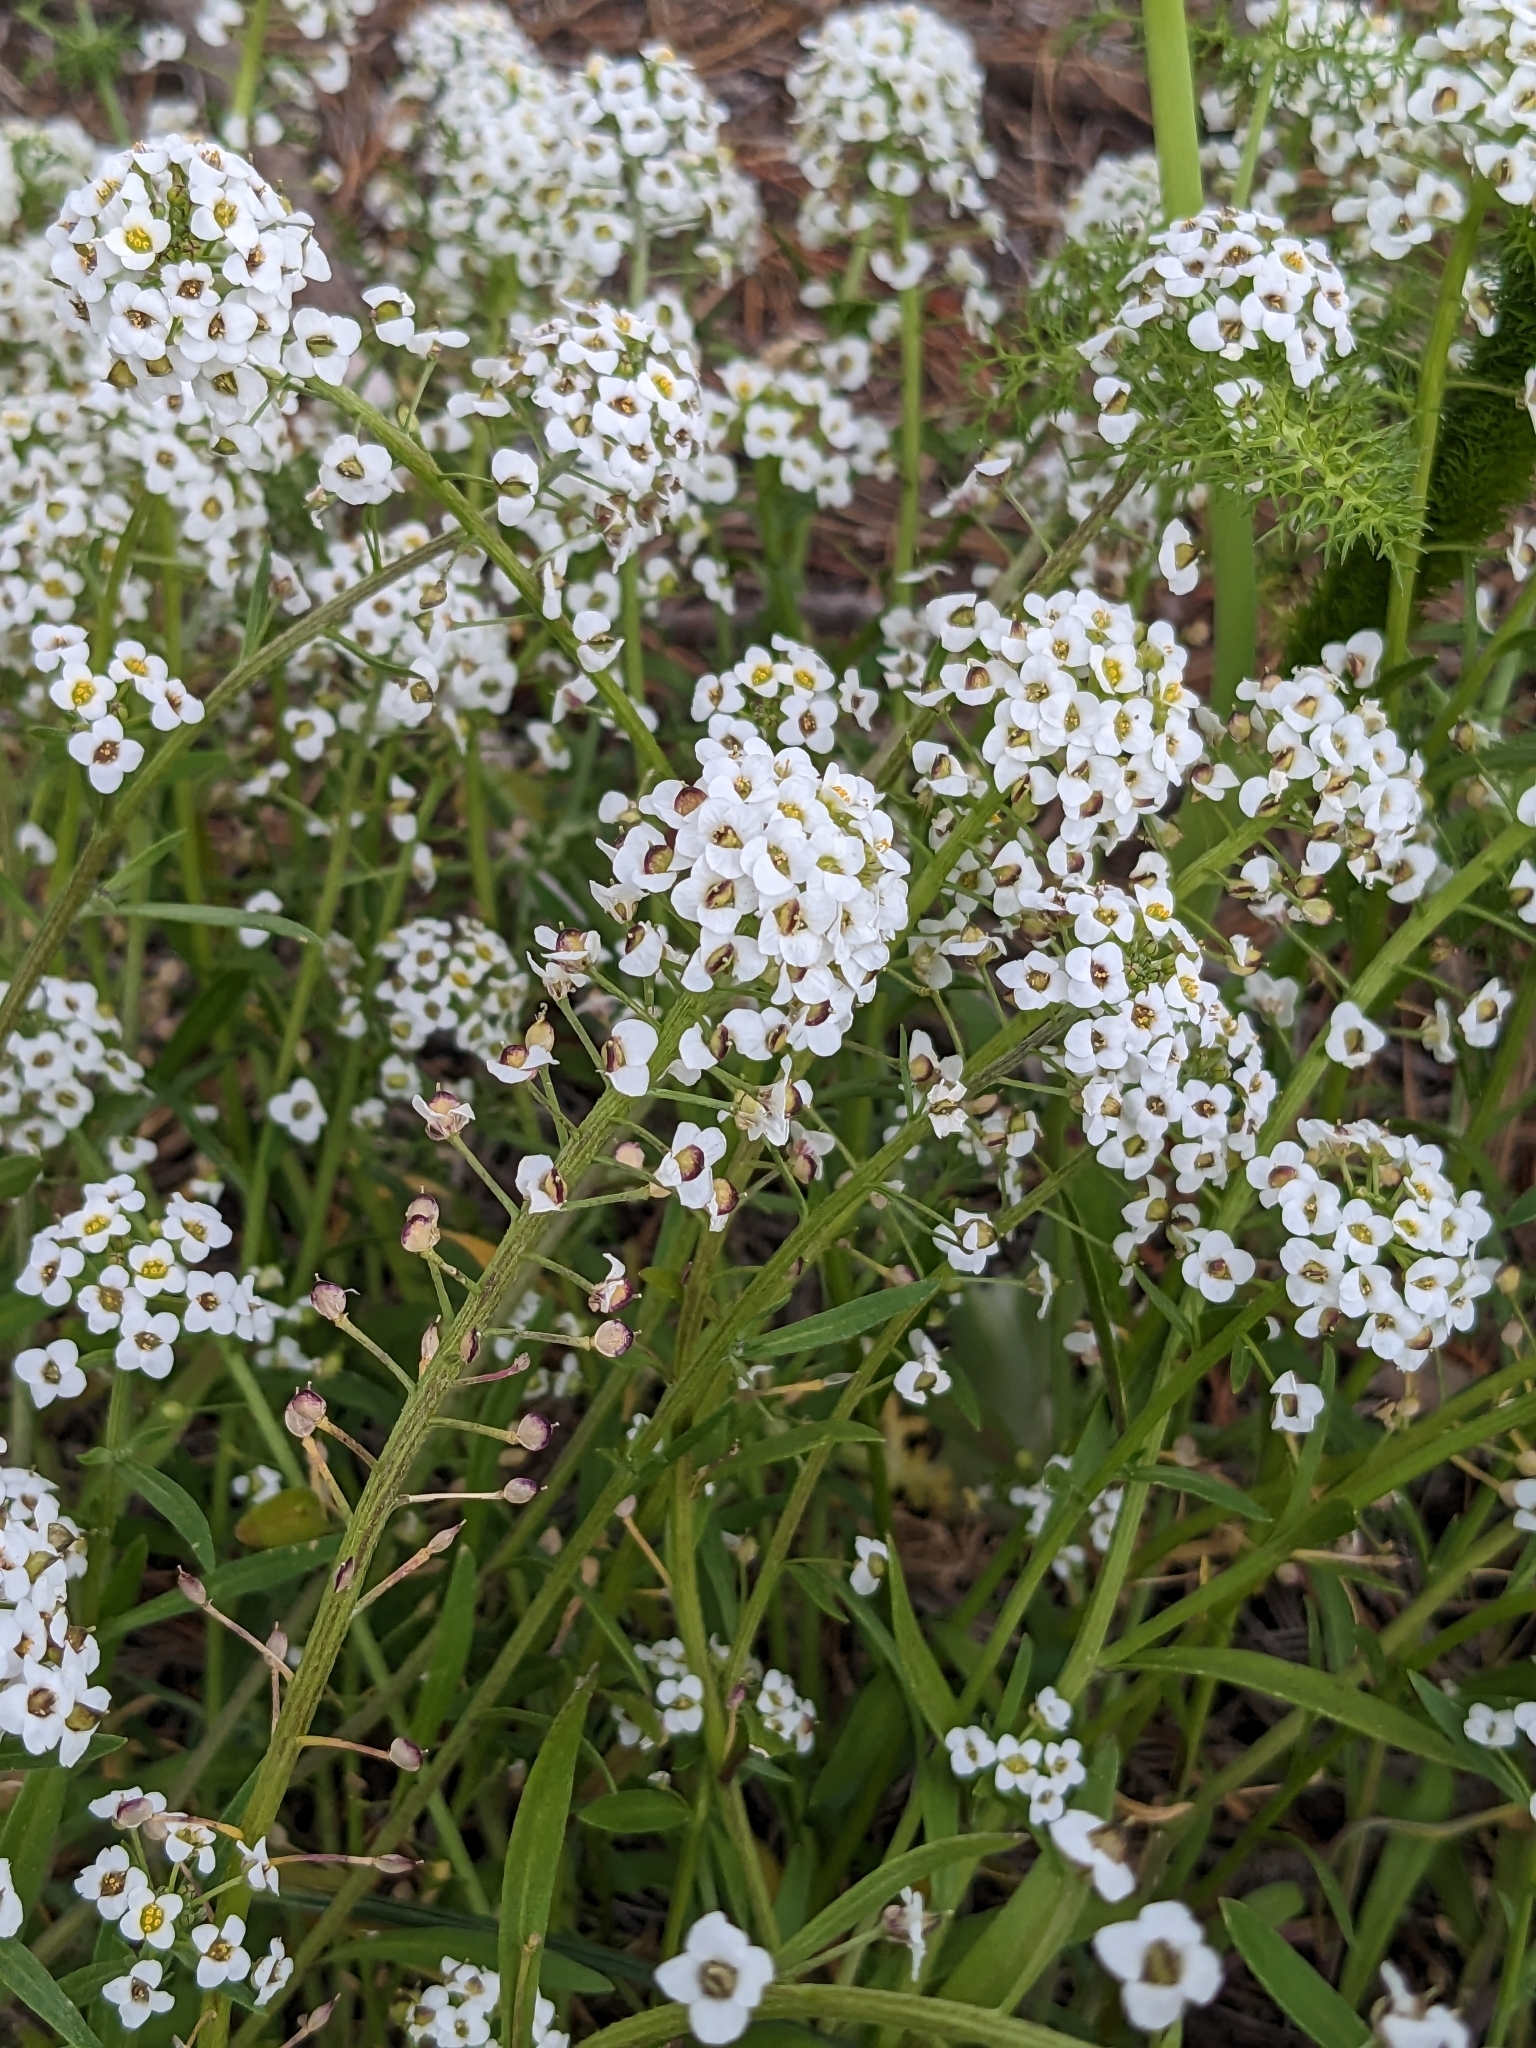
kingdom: Plantae
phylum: Tracheophyta
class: Magnoliopsida
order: Brassicales
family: Brassicaceae
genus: Lobularia
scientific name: Lobularia maritima
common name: Sweet alison
